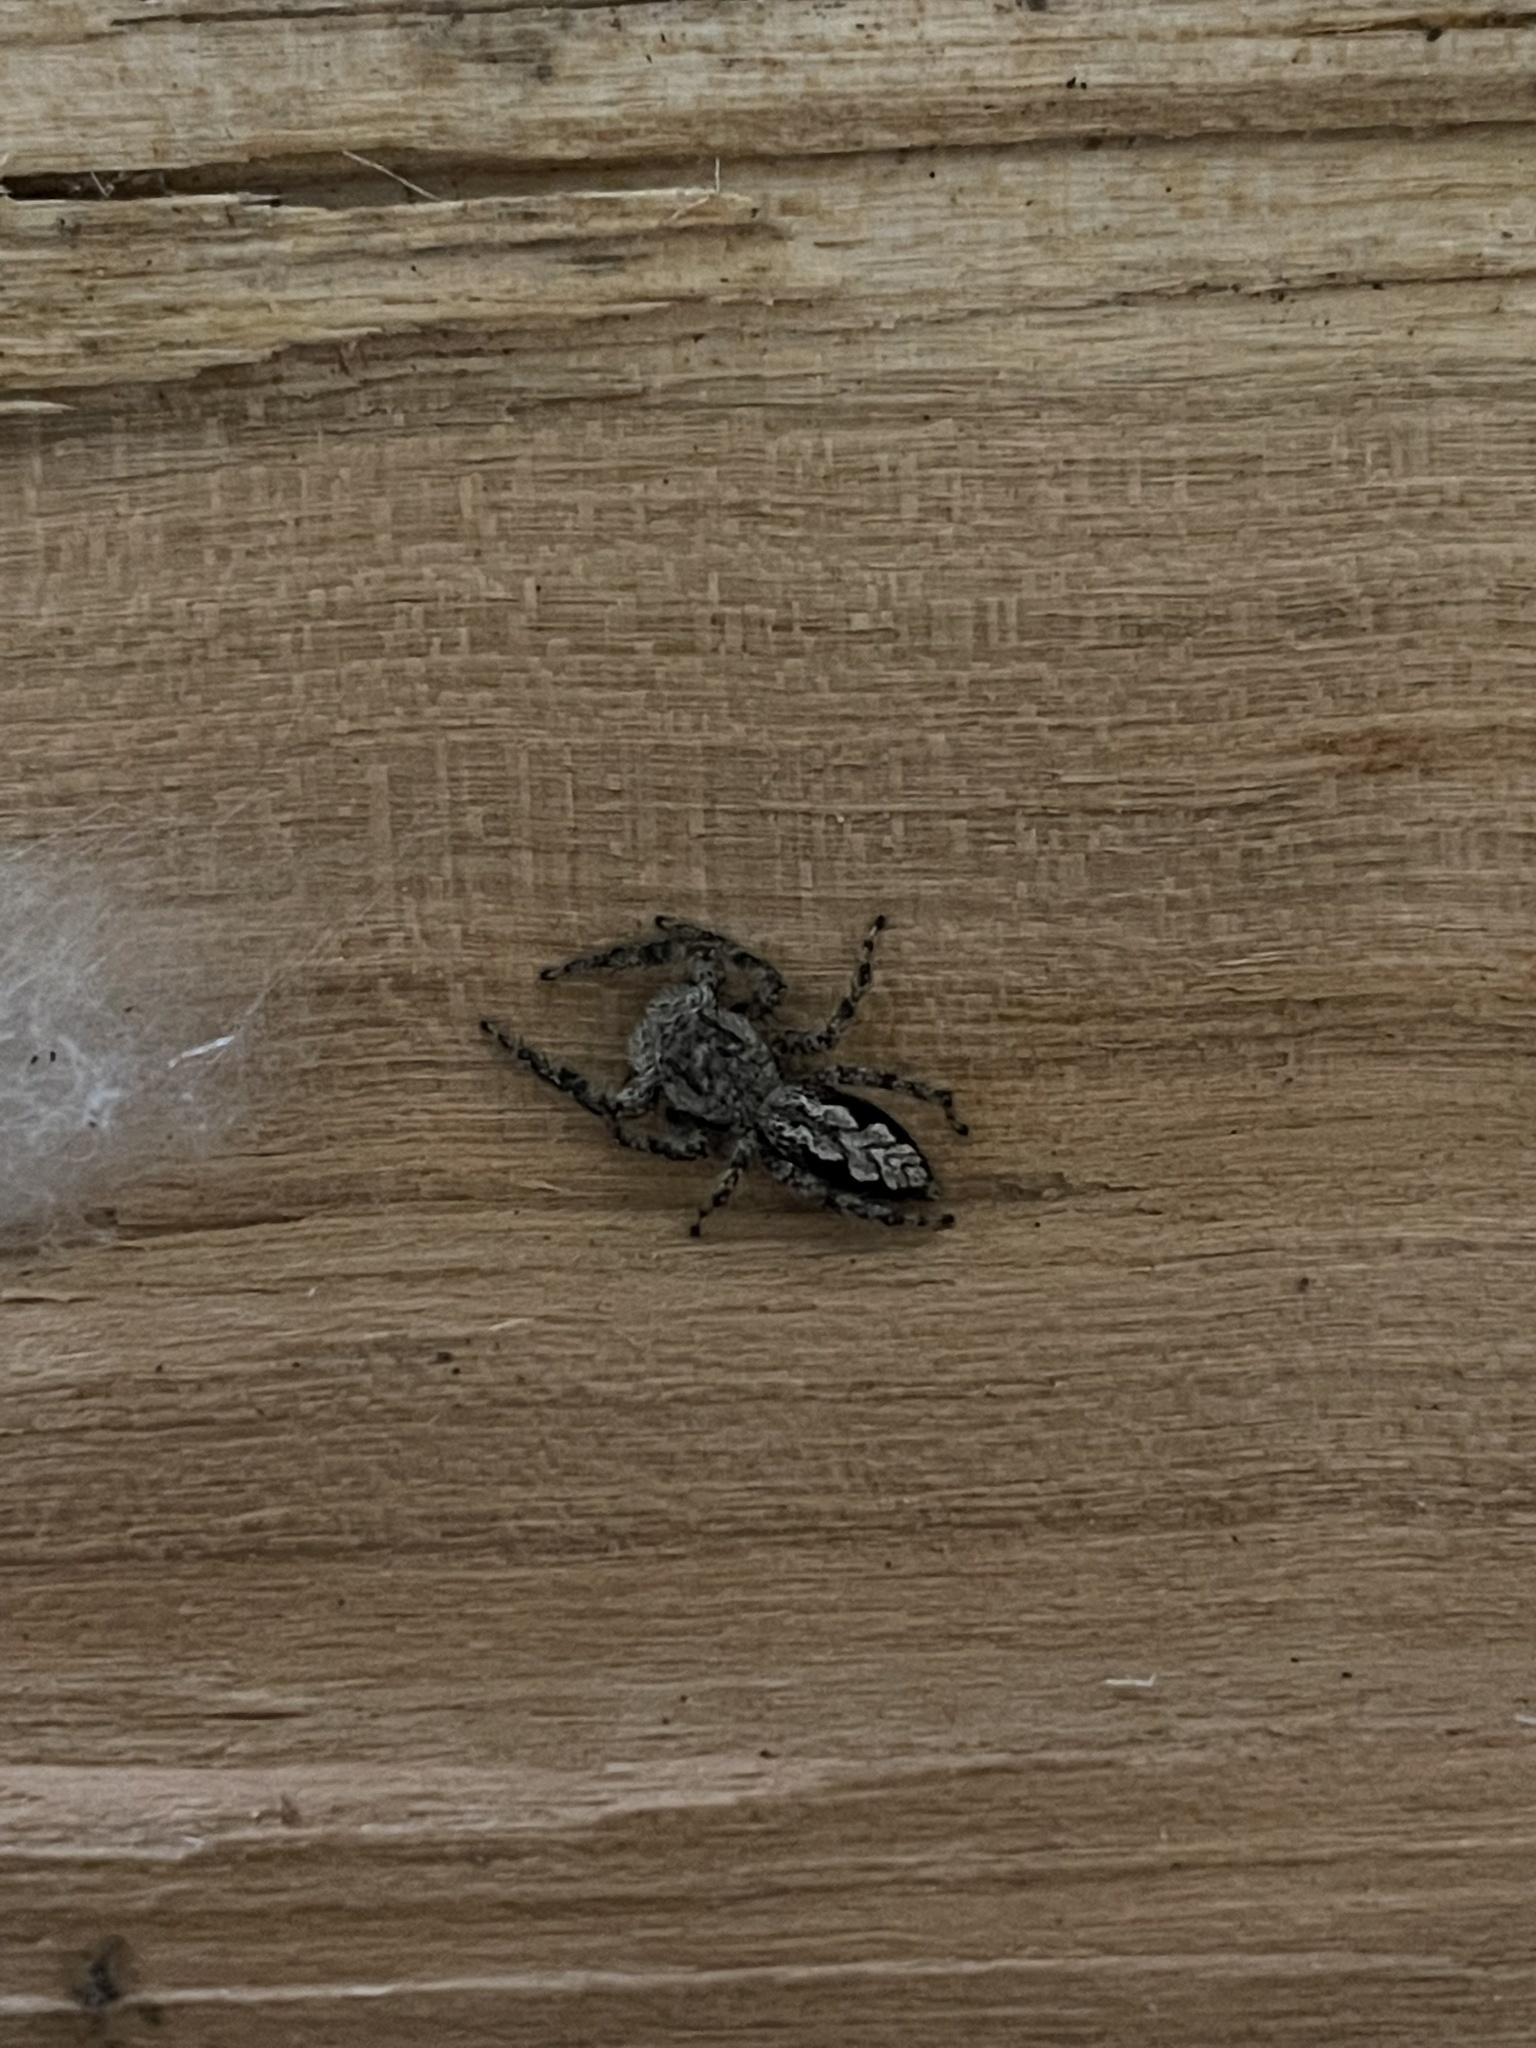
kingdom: Animalia
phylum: Arthropoda
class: Arachnida
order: Araneae
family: Salticidae
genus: Platycryptus
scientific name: Platycryptus undatus
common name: Tan jumping spider
